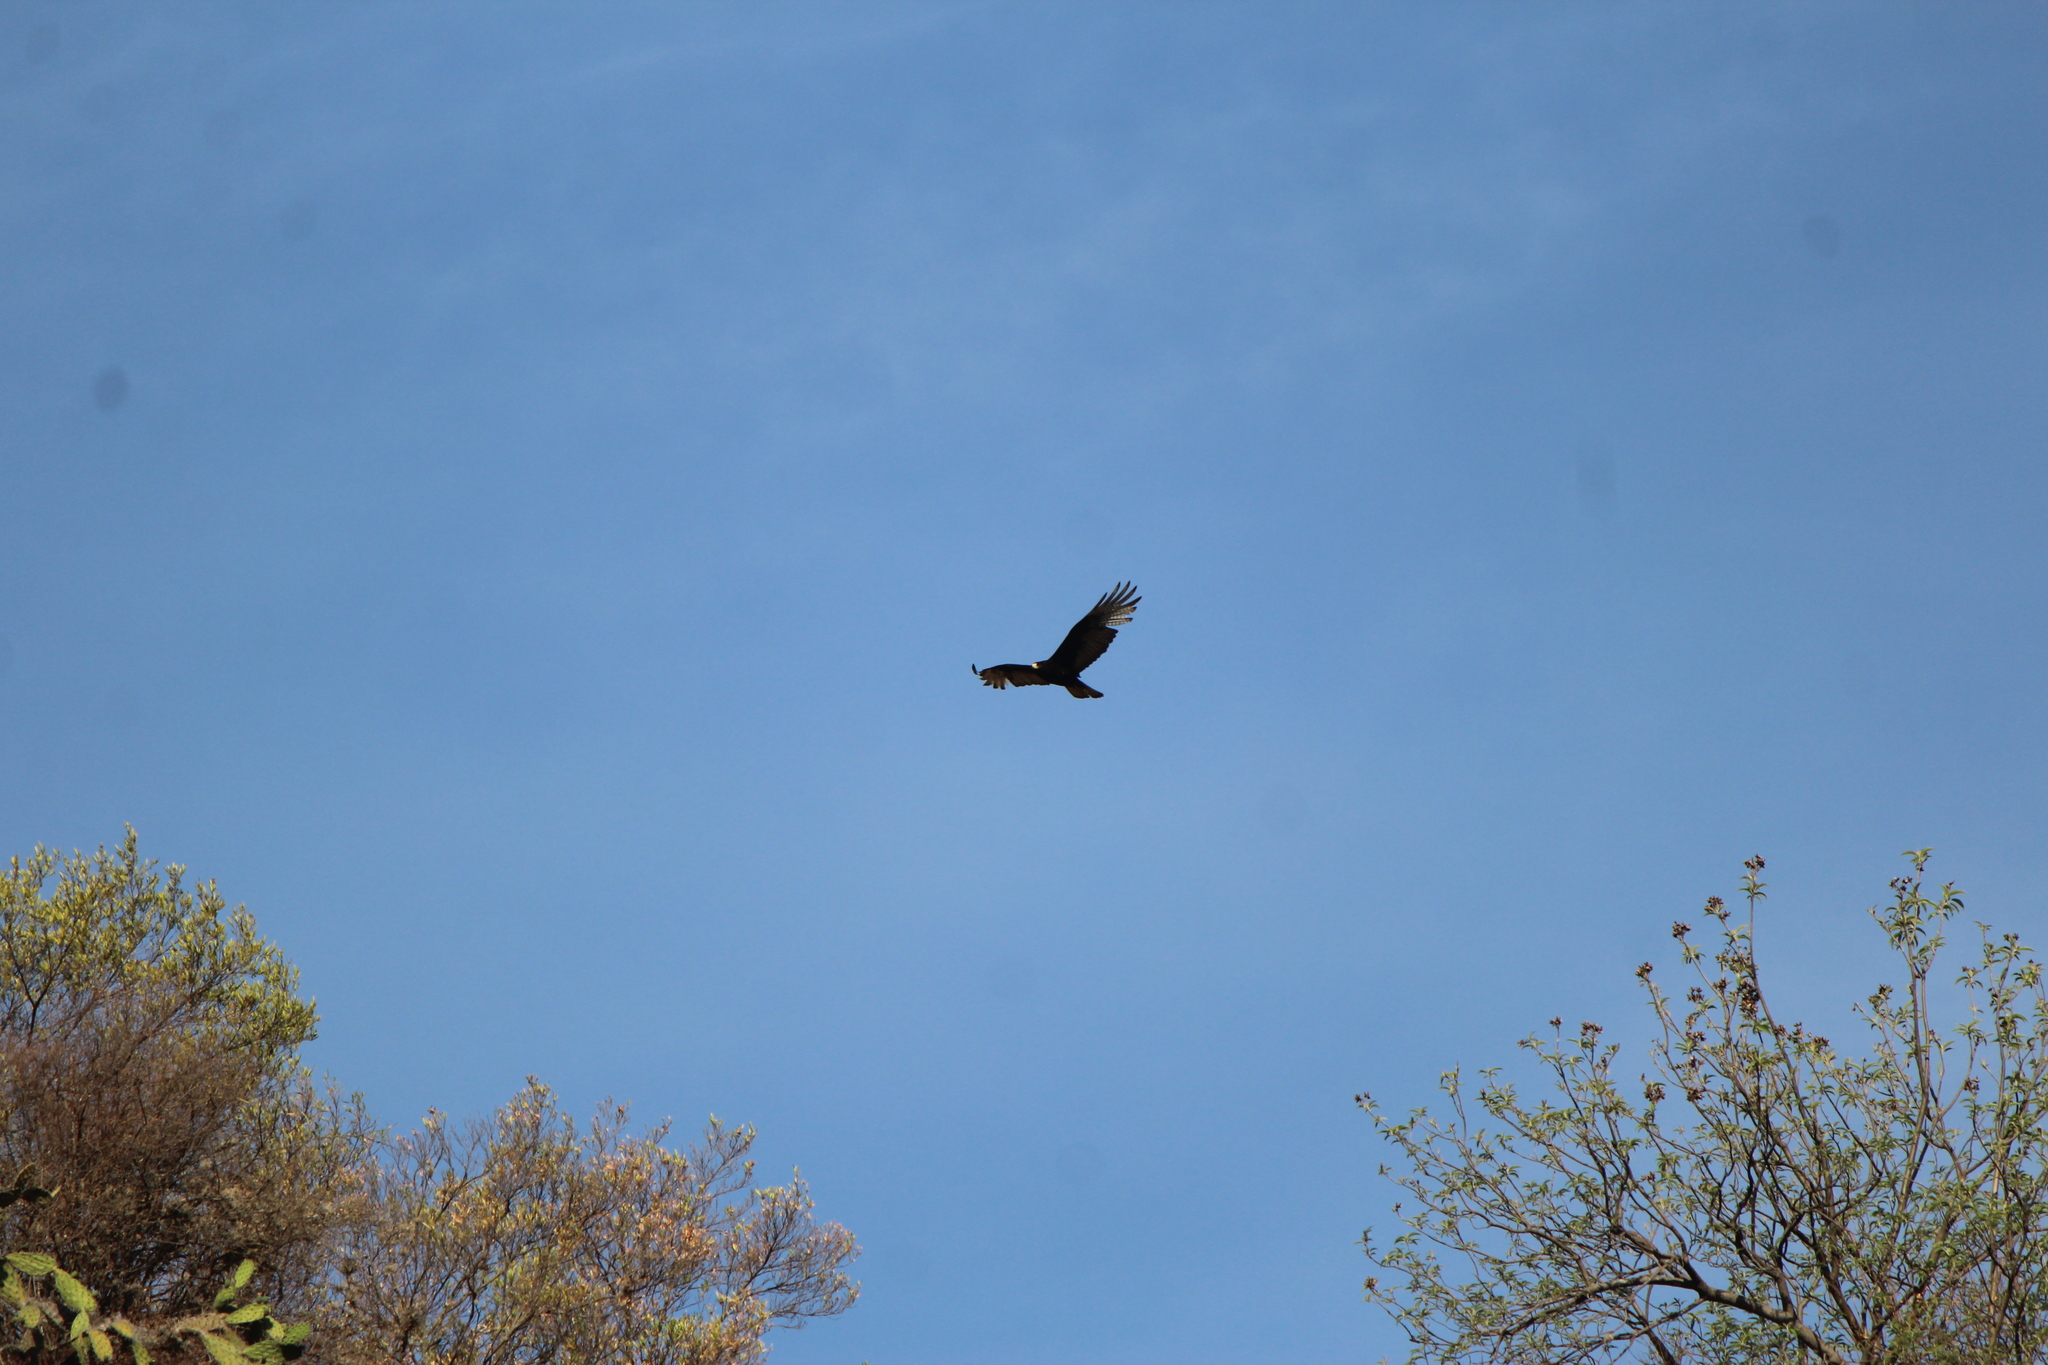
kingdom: Animalia
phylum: Chordata
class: Aves
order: Accipitriformes
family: Accipitridae
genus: Buteo
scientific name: Buteo albonotatus
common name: Zone-tailed hawk
